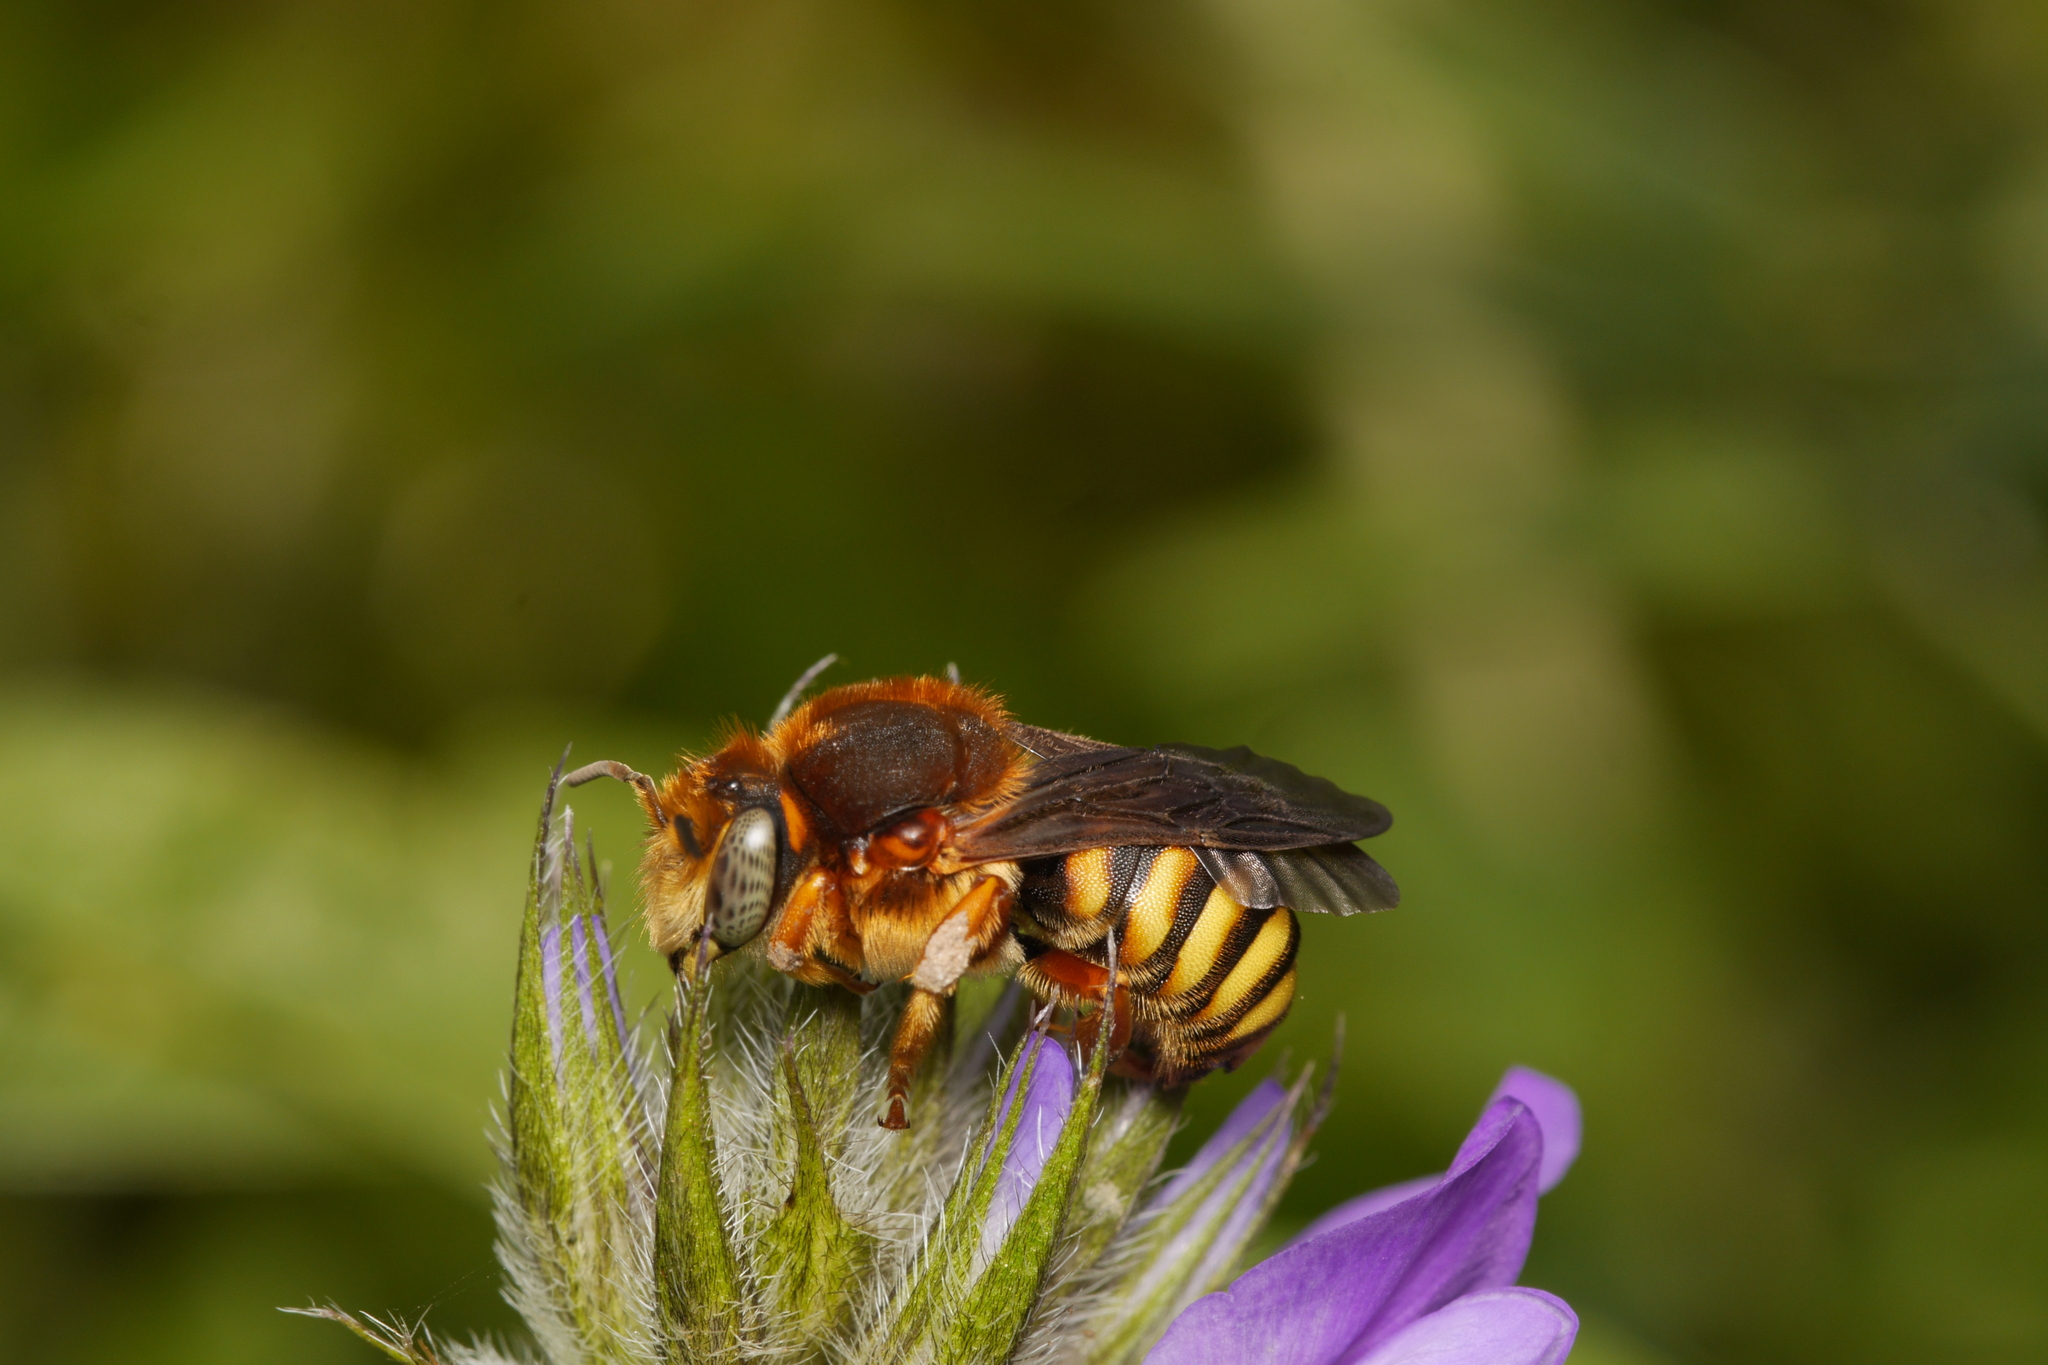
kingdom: Animalia
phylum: Arthropoda
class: Insecta
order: Hymenoptera
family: Megachilidae
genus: Rhodanthidium
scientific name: Rhodanthidium septemdentatum
